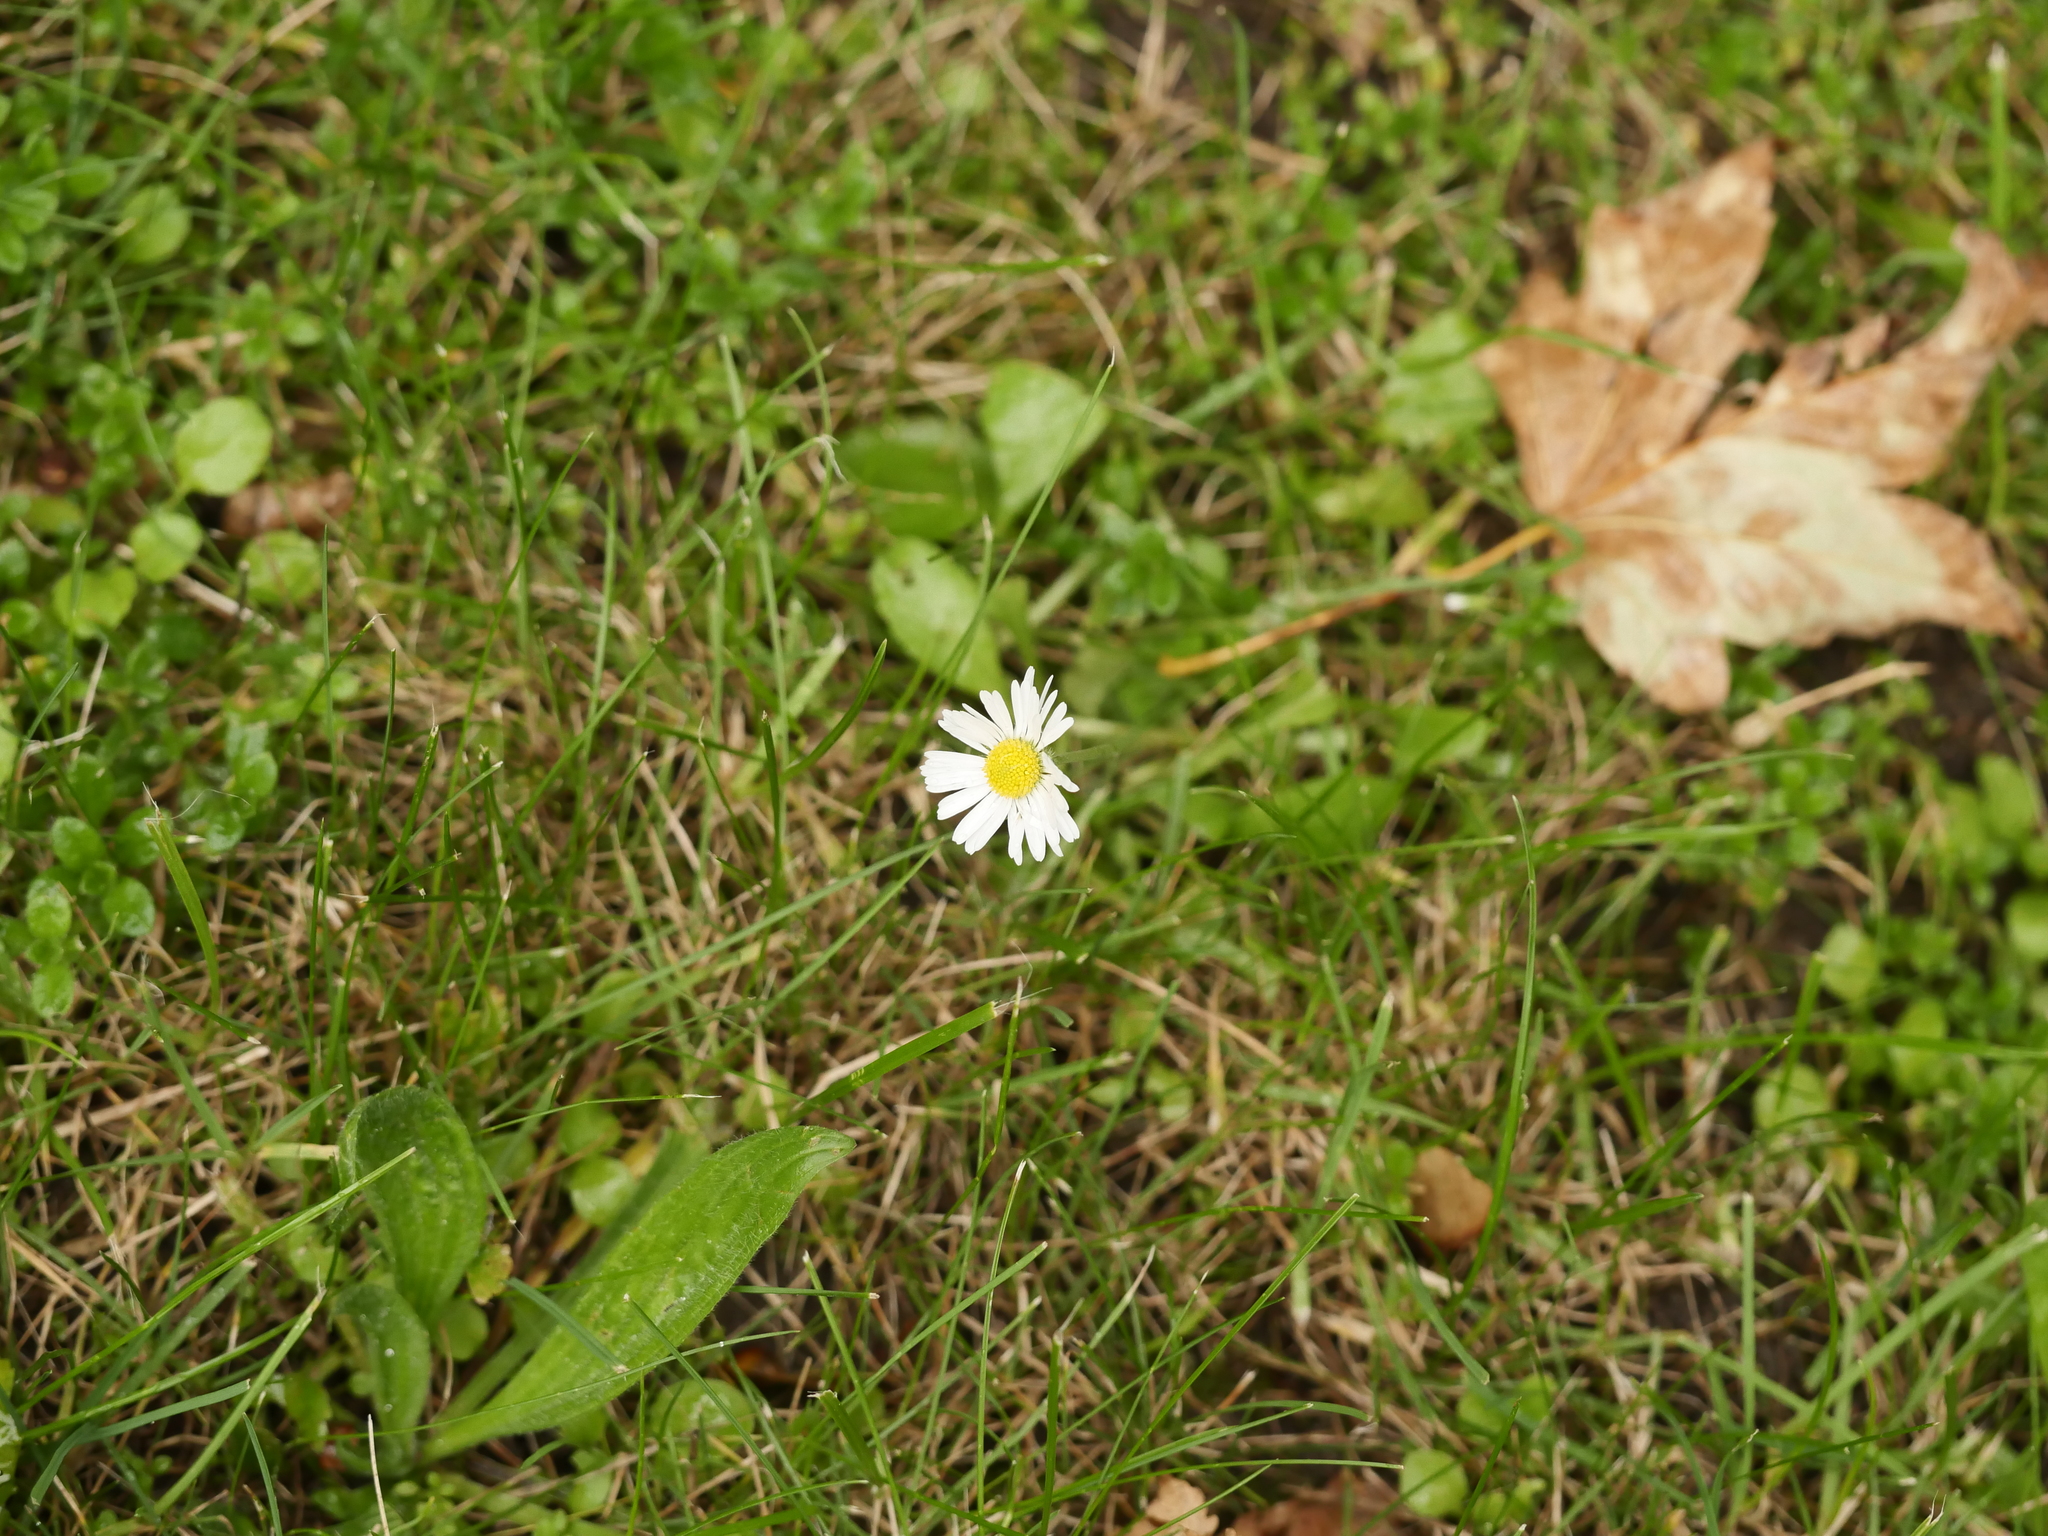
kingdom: Plantae
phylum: Tracheophyta
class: Magnoliopsida
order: Asterales
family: Asteraceae
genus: Bellis
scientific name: Bellis perennis
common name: Lawndaisy
